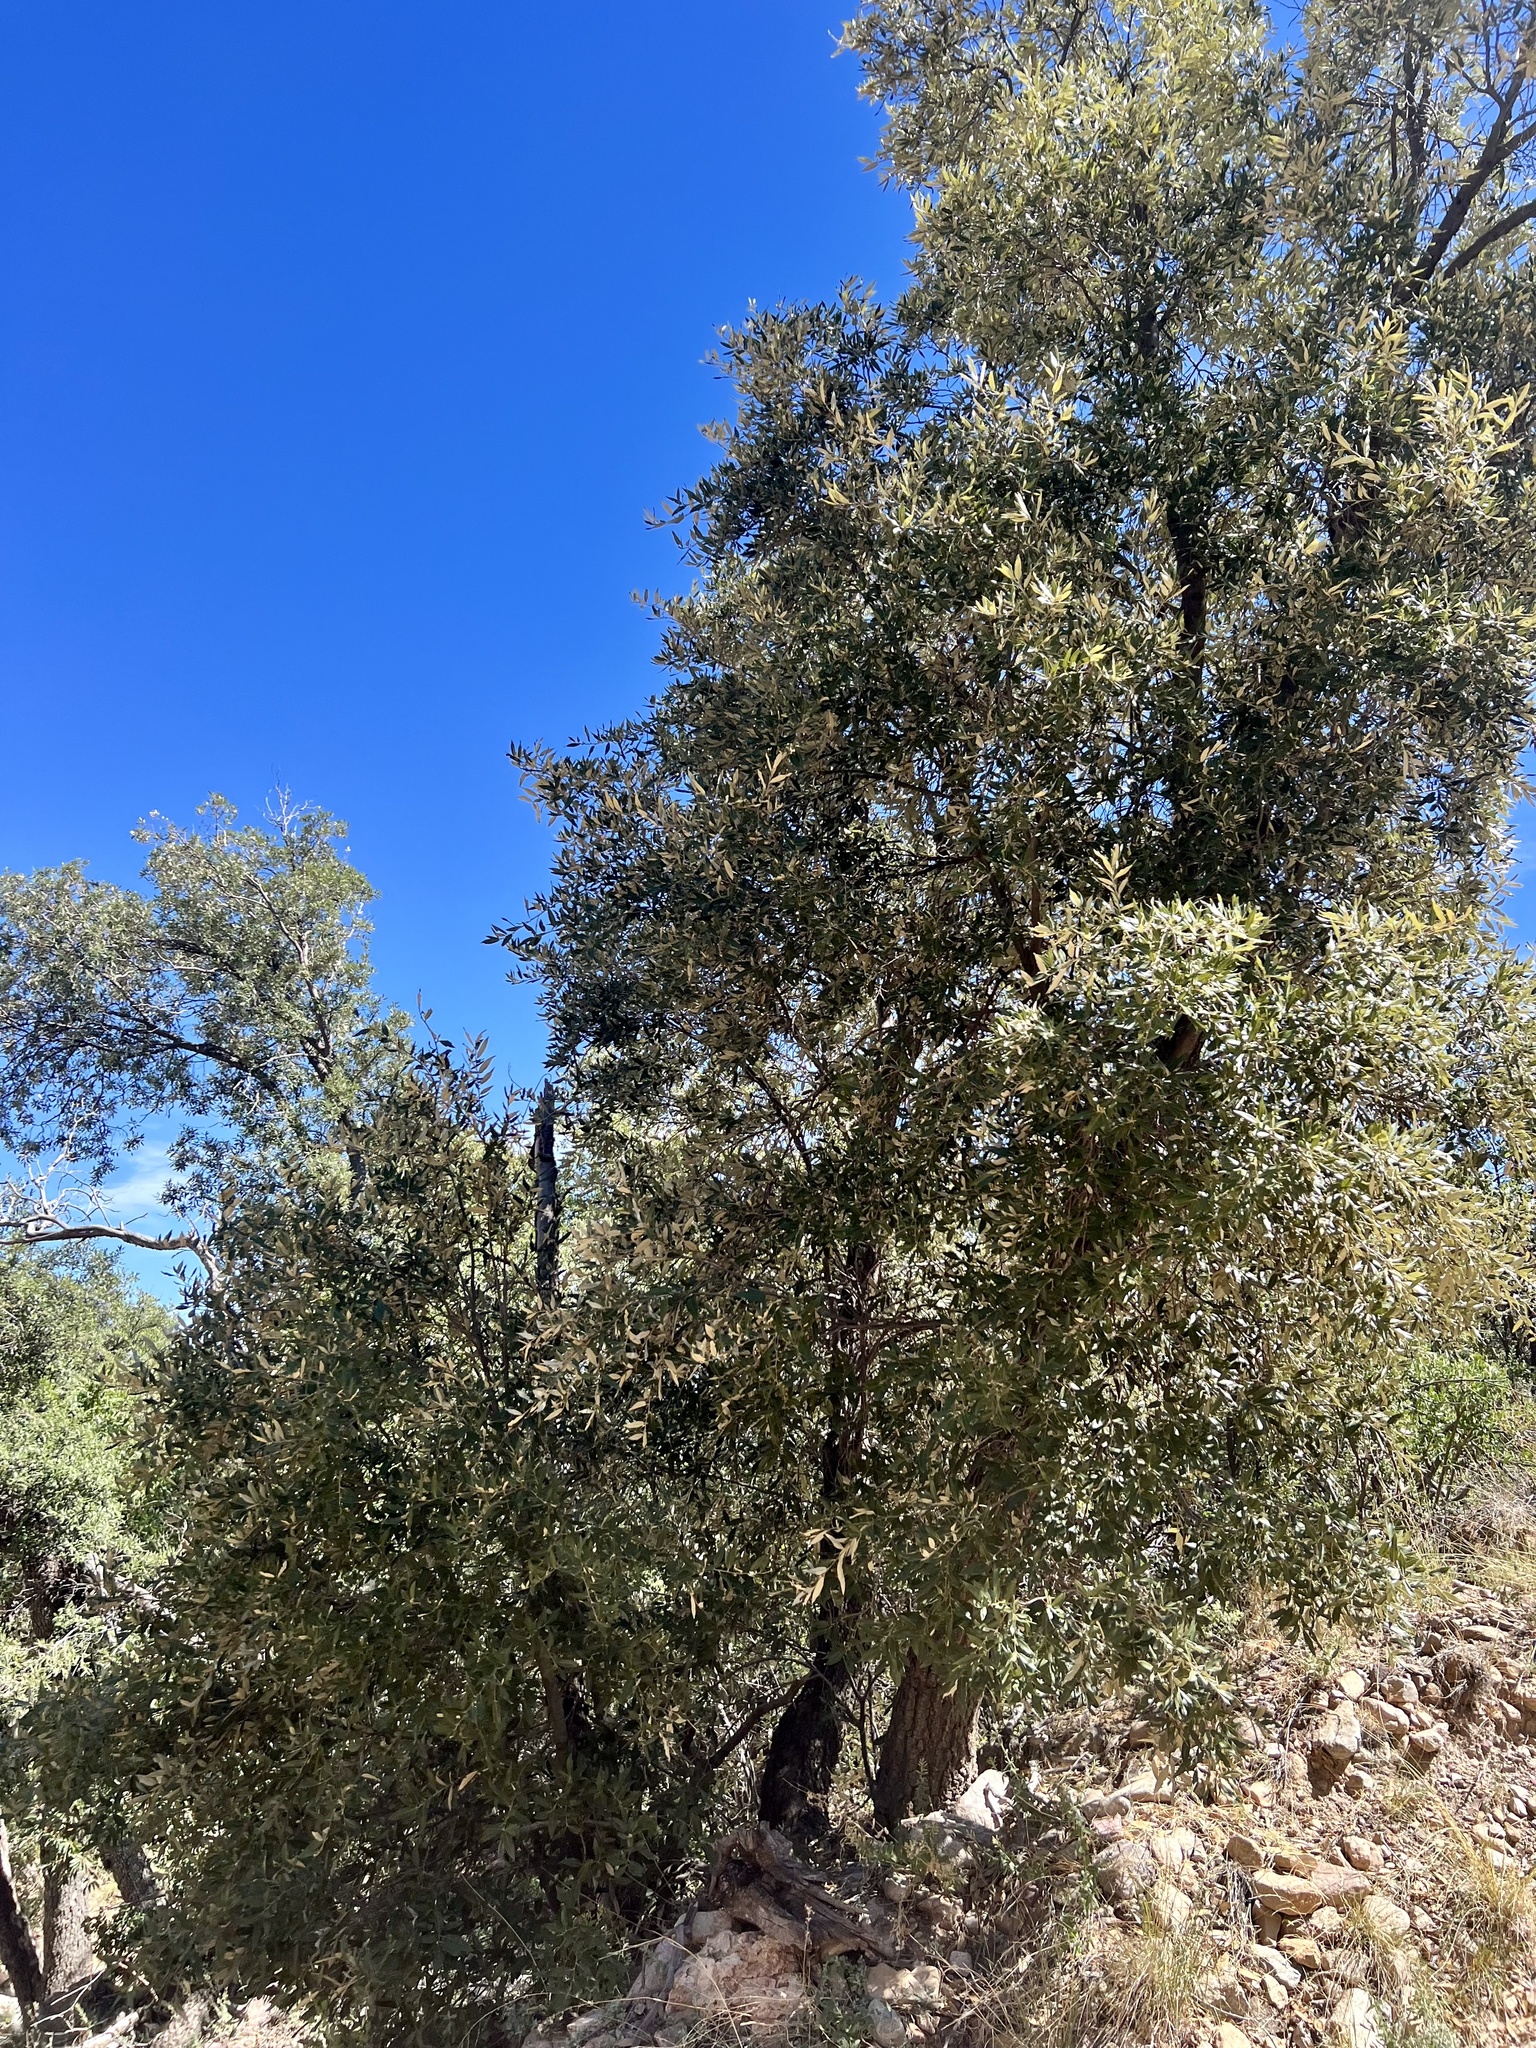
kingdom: Plantae
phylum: Tracheophyta
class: Magnoliopsida
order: Fagales
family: Fagaceae
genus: Quercus
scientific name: Quercus hypoleucoides
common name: Silverleaf oak
